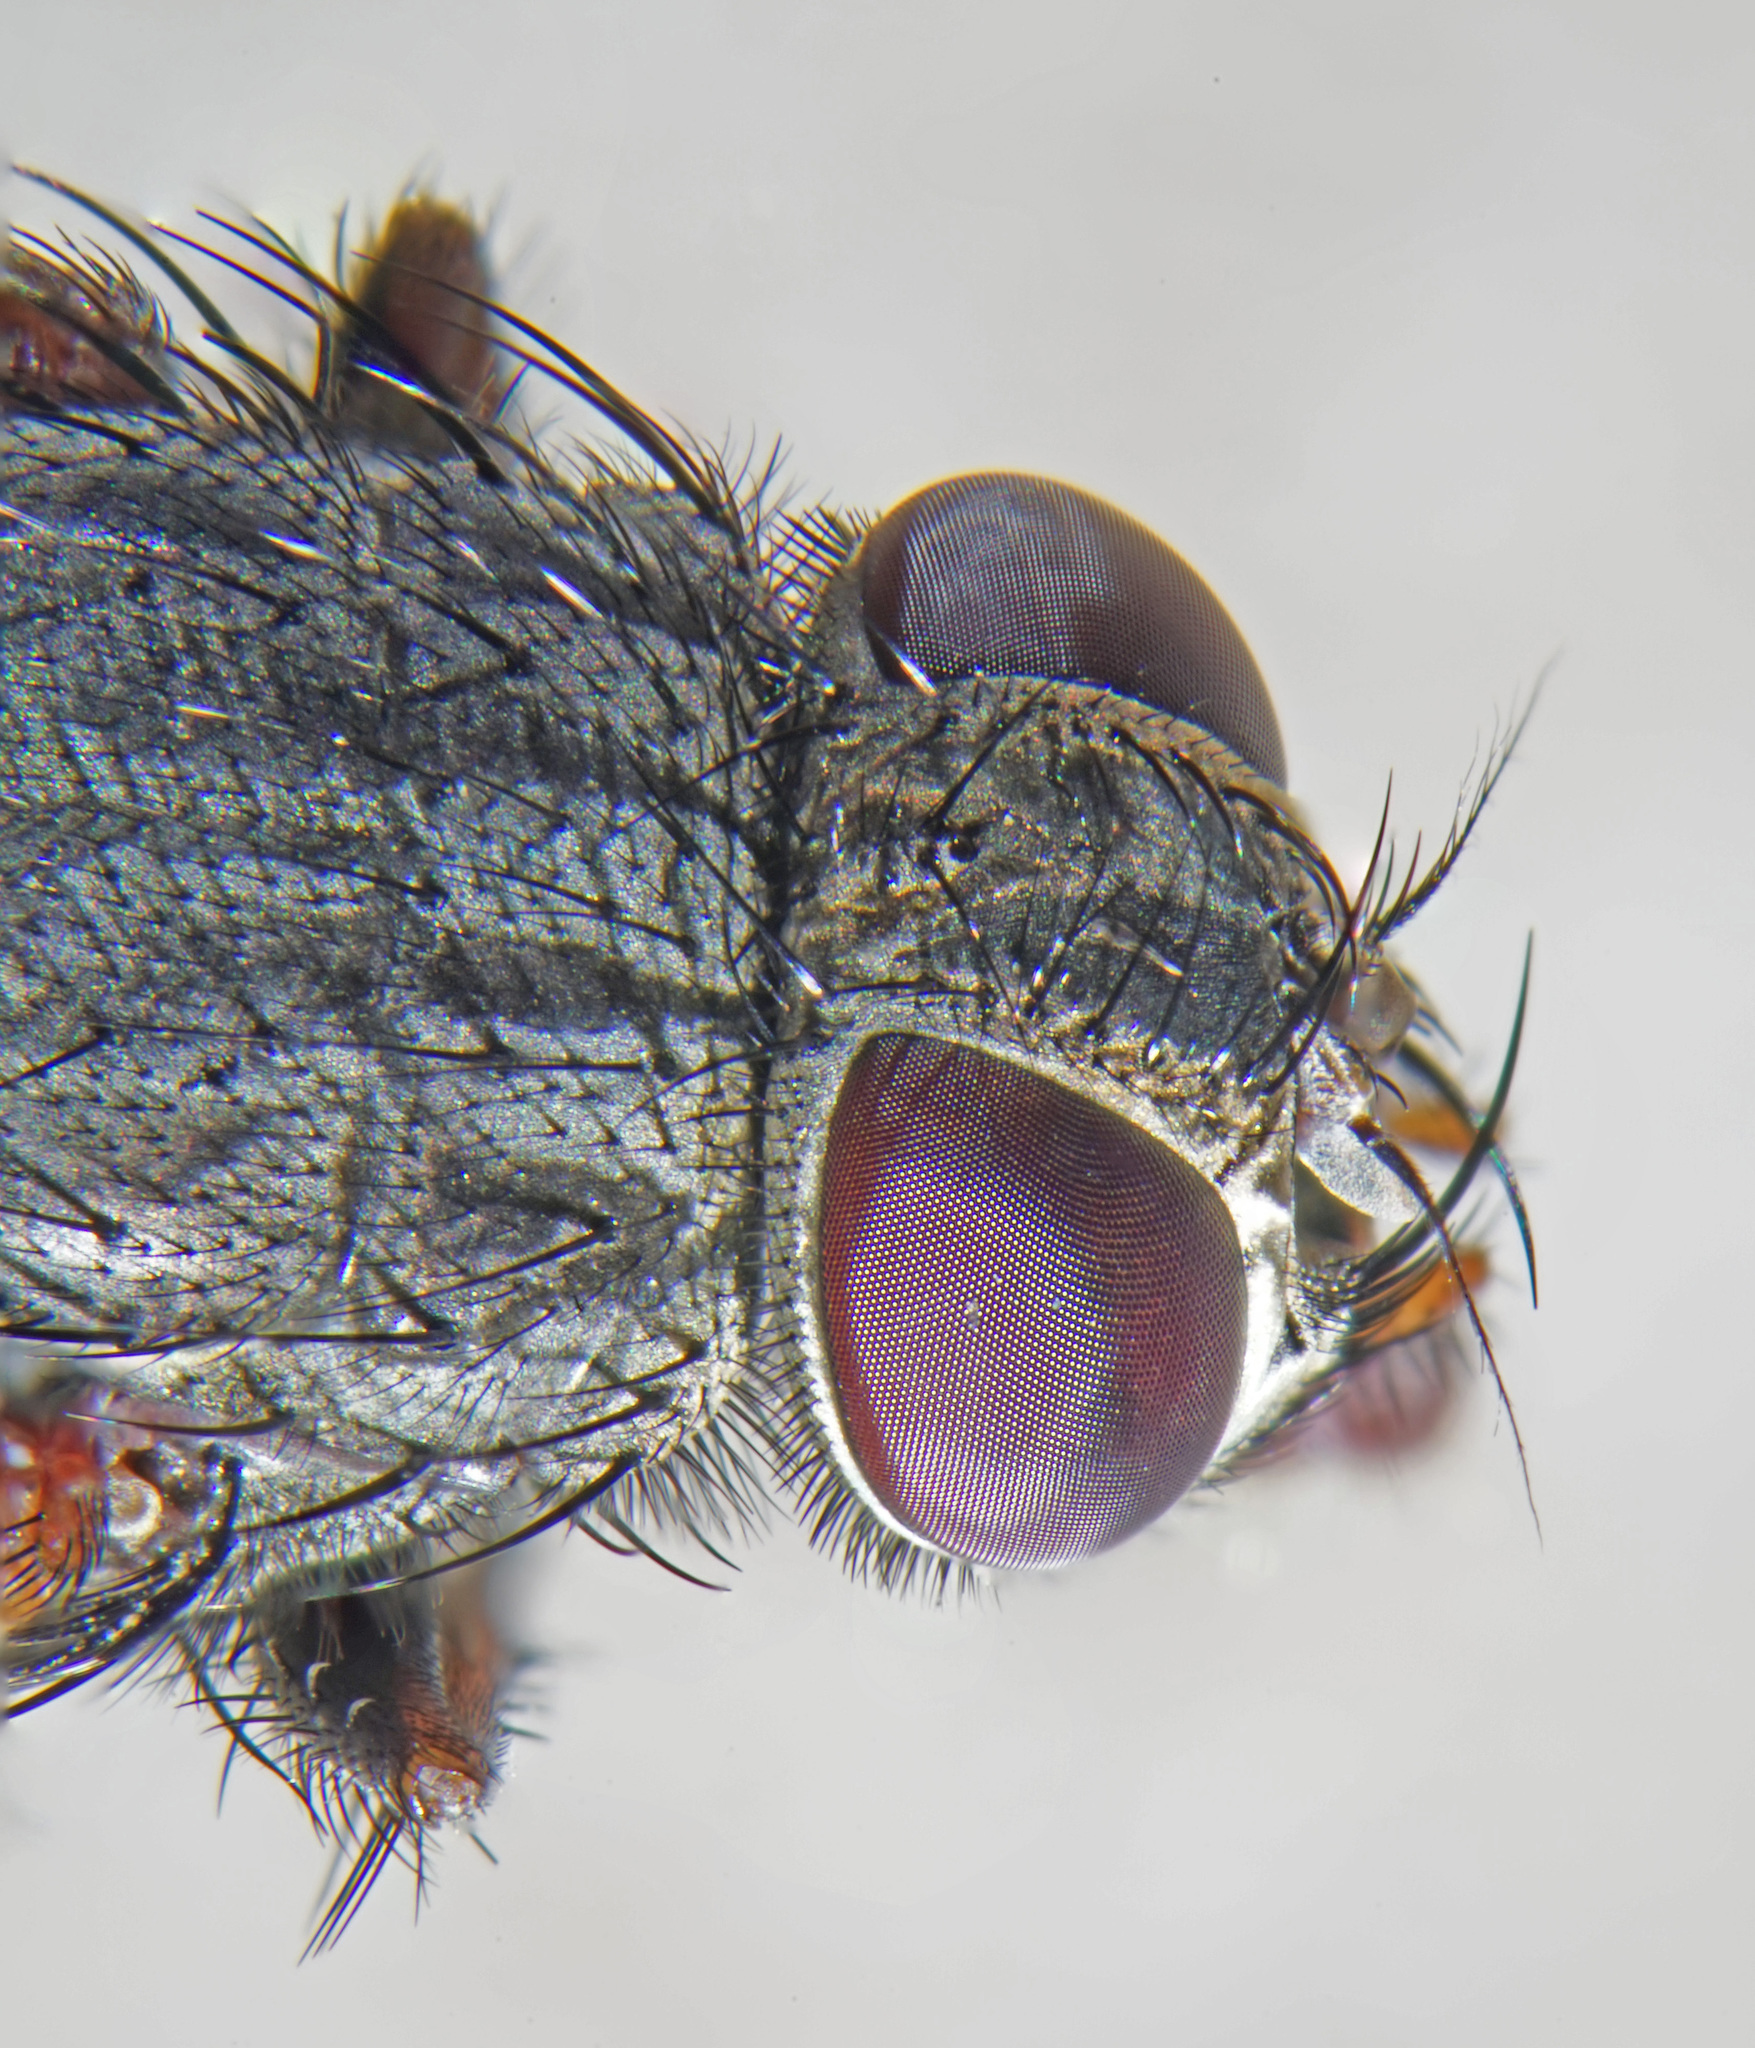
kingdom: Animalia
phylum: Arthropoda
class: Insecta
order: Diptera
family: Muscidae
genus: Muscina
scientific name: Muscina stabulans
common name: False stable fly
